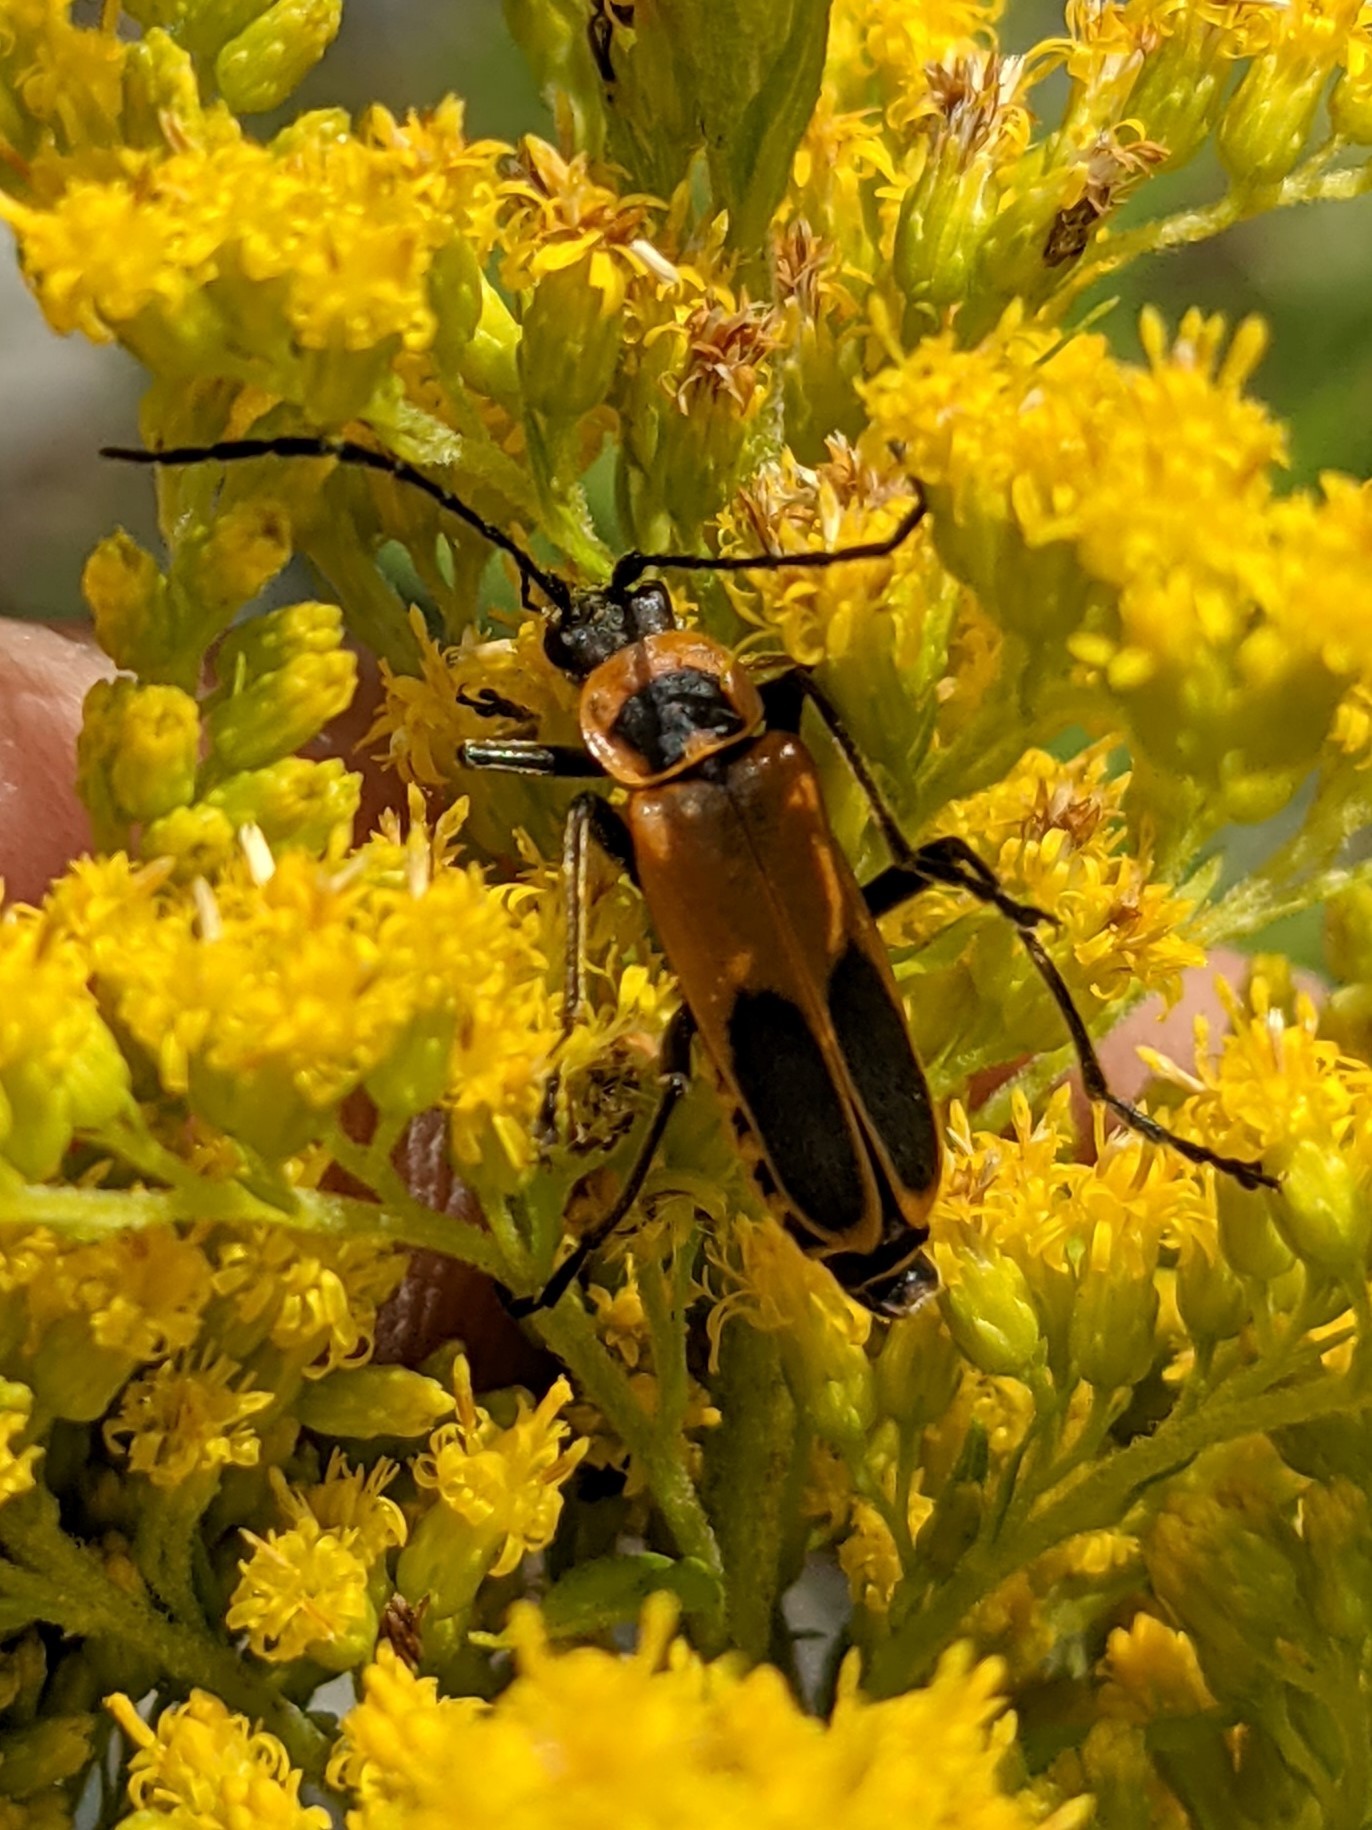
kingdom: Animalia
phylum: Arthropoda
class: Insecta
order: Coleoptera
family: Cantharidae
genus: Chauliognathus
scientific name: Chauliognathus pensylvanicus
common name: Goldenrod soldier beetle
